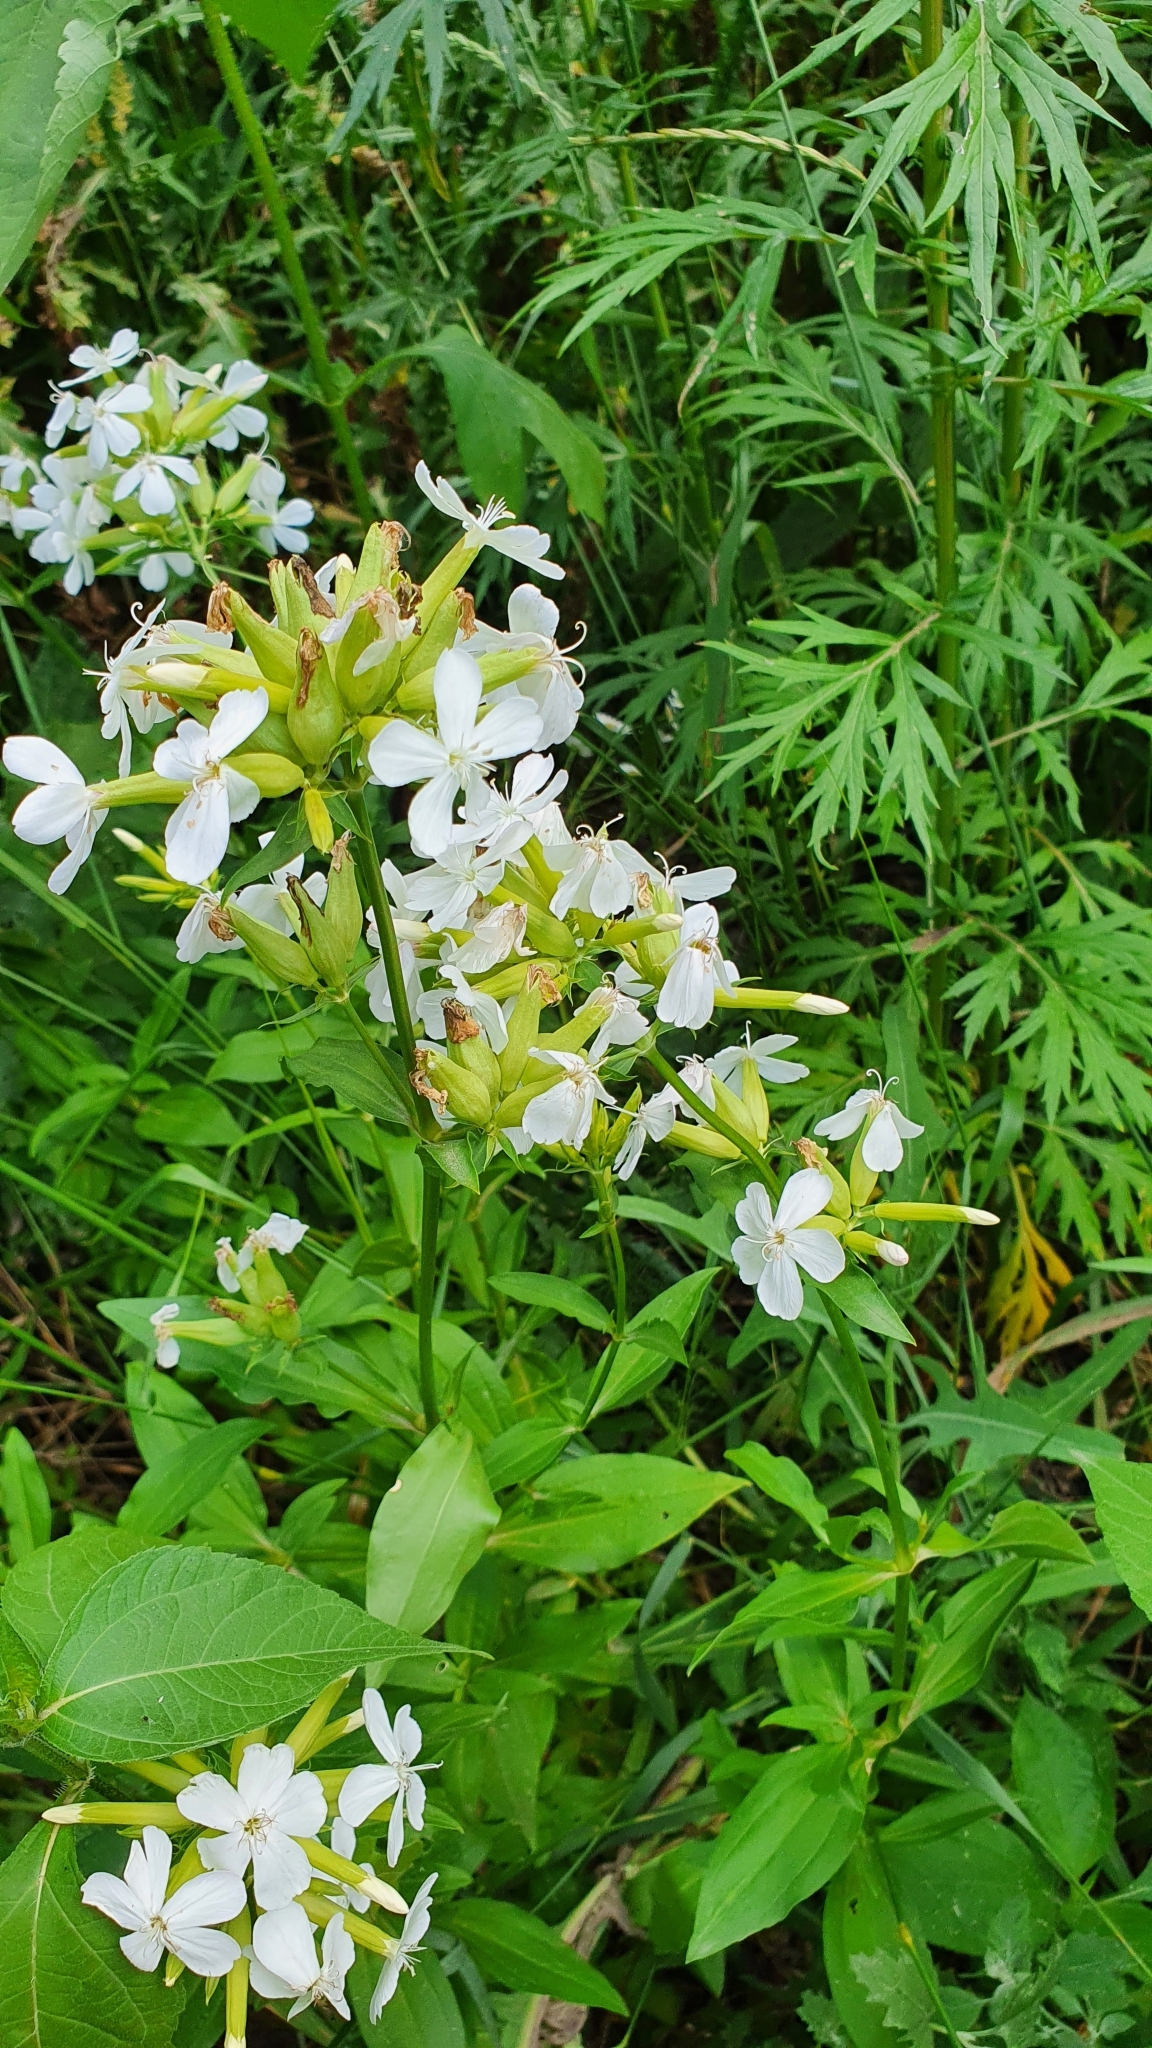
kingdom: Plantae
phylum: Tracheophyta
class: Magnoliopsida
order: Caryophyllales
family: Caryophyllaceae
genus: Saponaria
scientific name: Saponaria officinalis
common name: Soapwort
